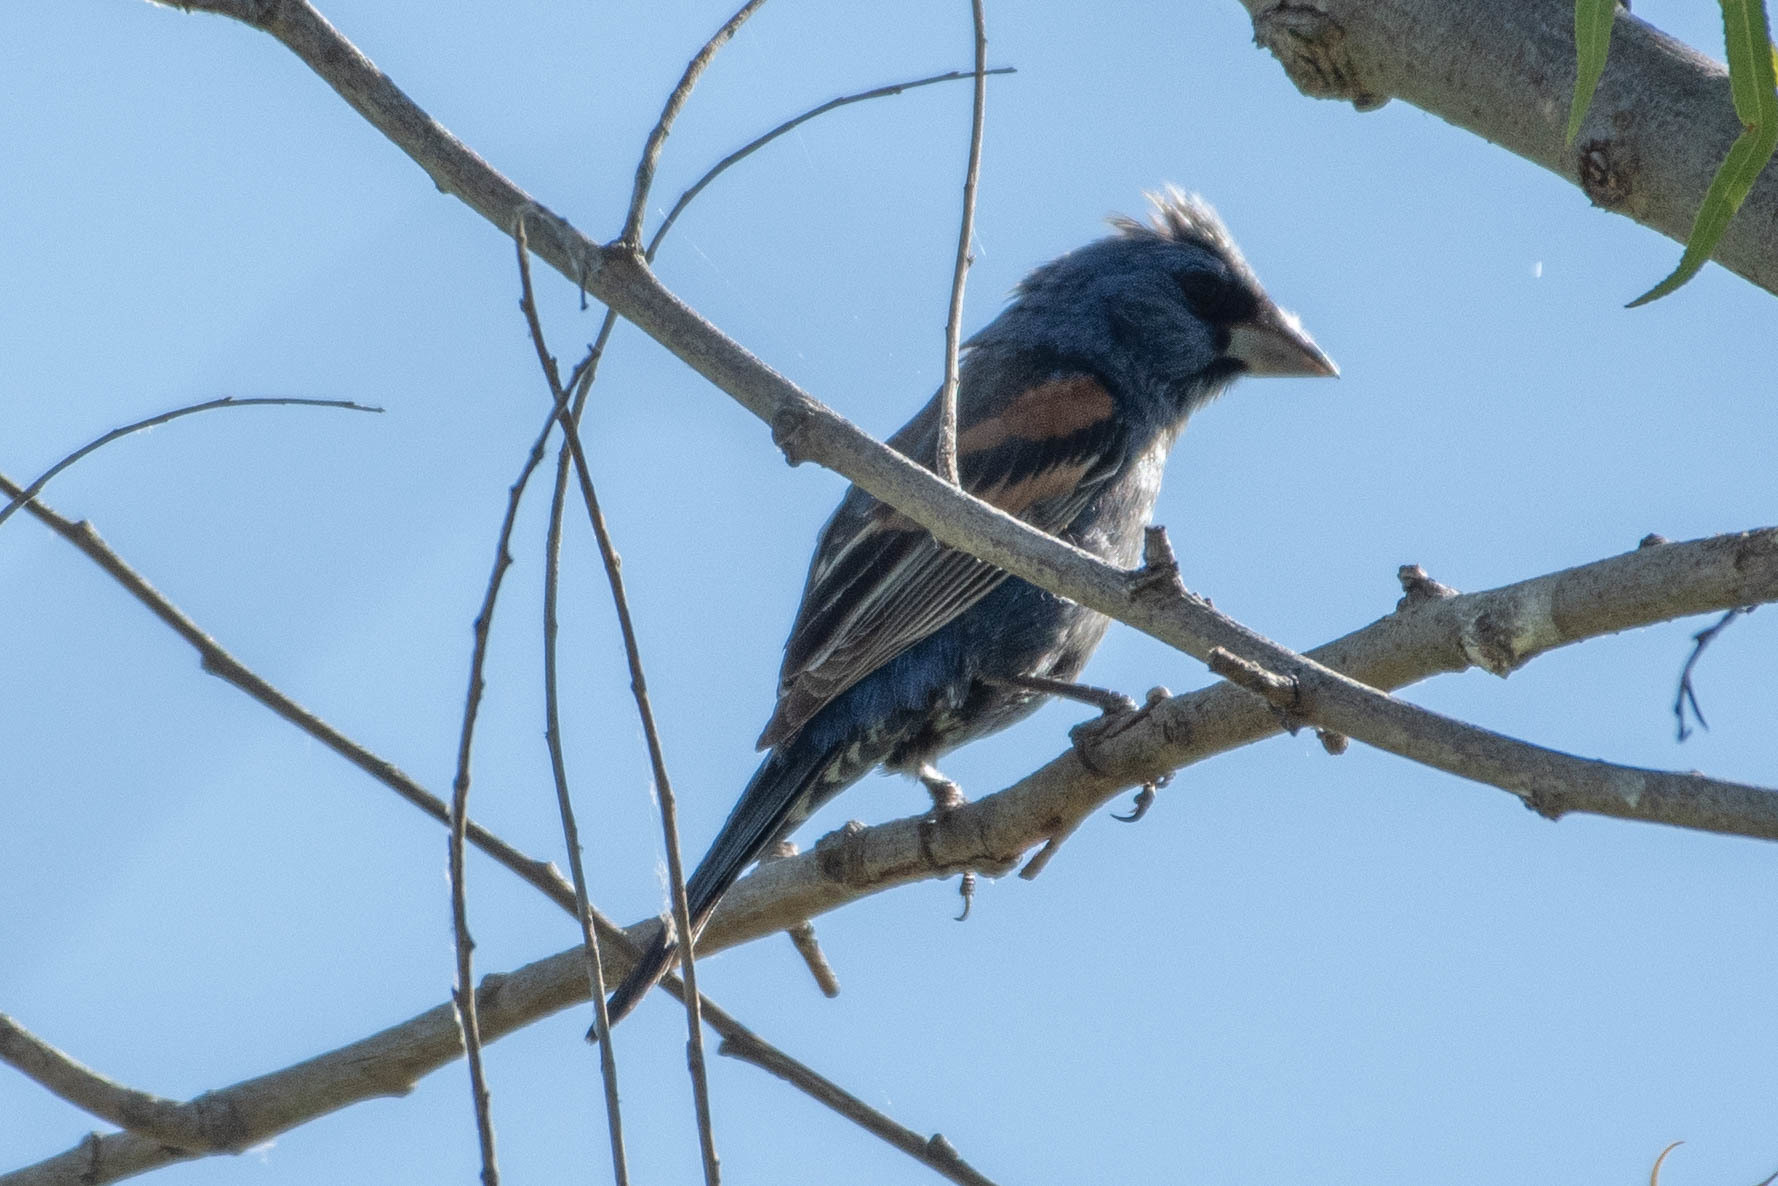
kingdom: Animalia
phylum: Chordata
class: Aves
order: Passeriformes
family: Cardinalidae
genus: Passerina
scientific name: Passerina caerulea
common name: Blue grosbeak
